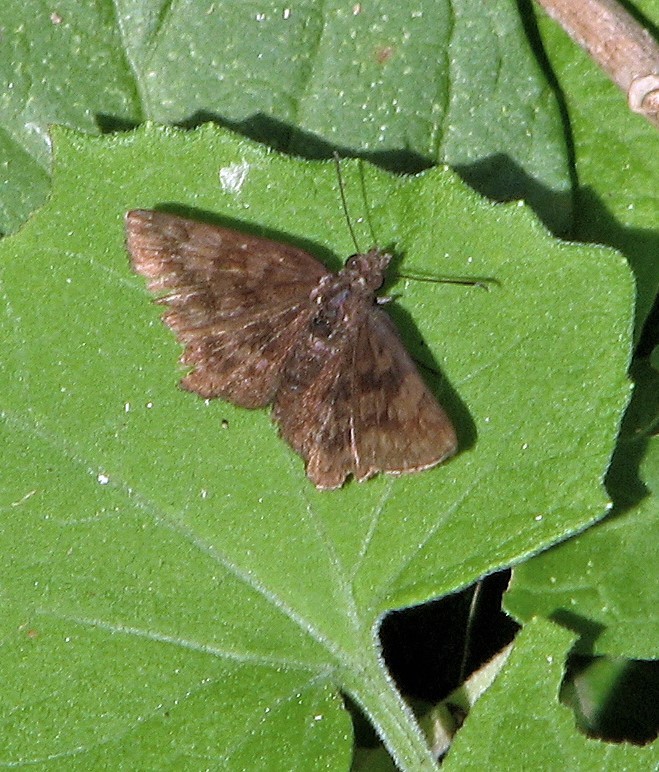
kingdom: Animalia
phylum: Arthropoda
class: Insecta
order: Lepidoptera
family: Hesperiidae
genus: Viola
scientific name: Viola minor
